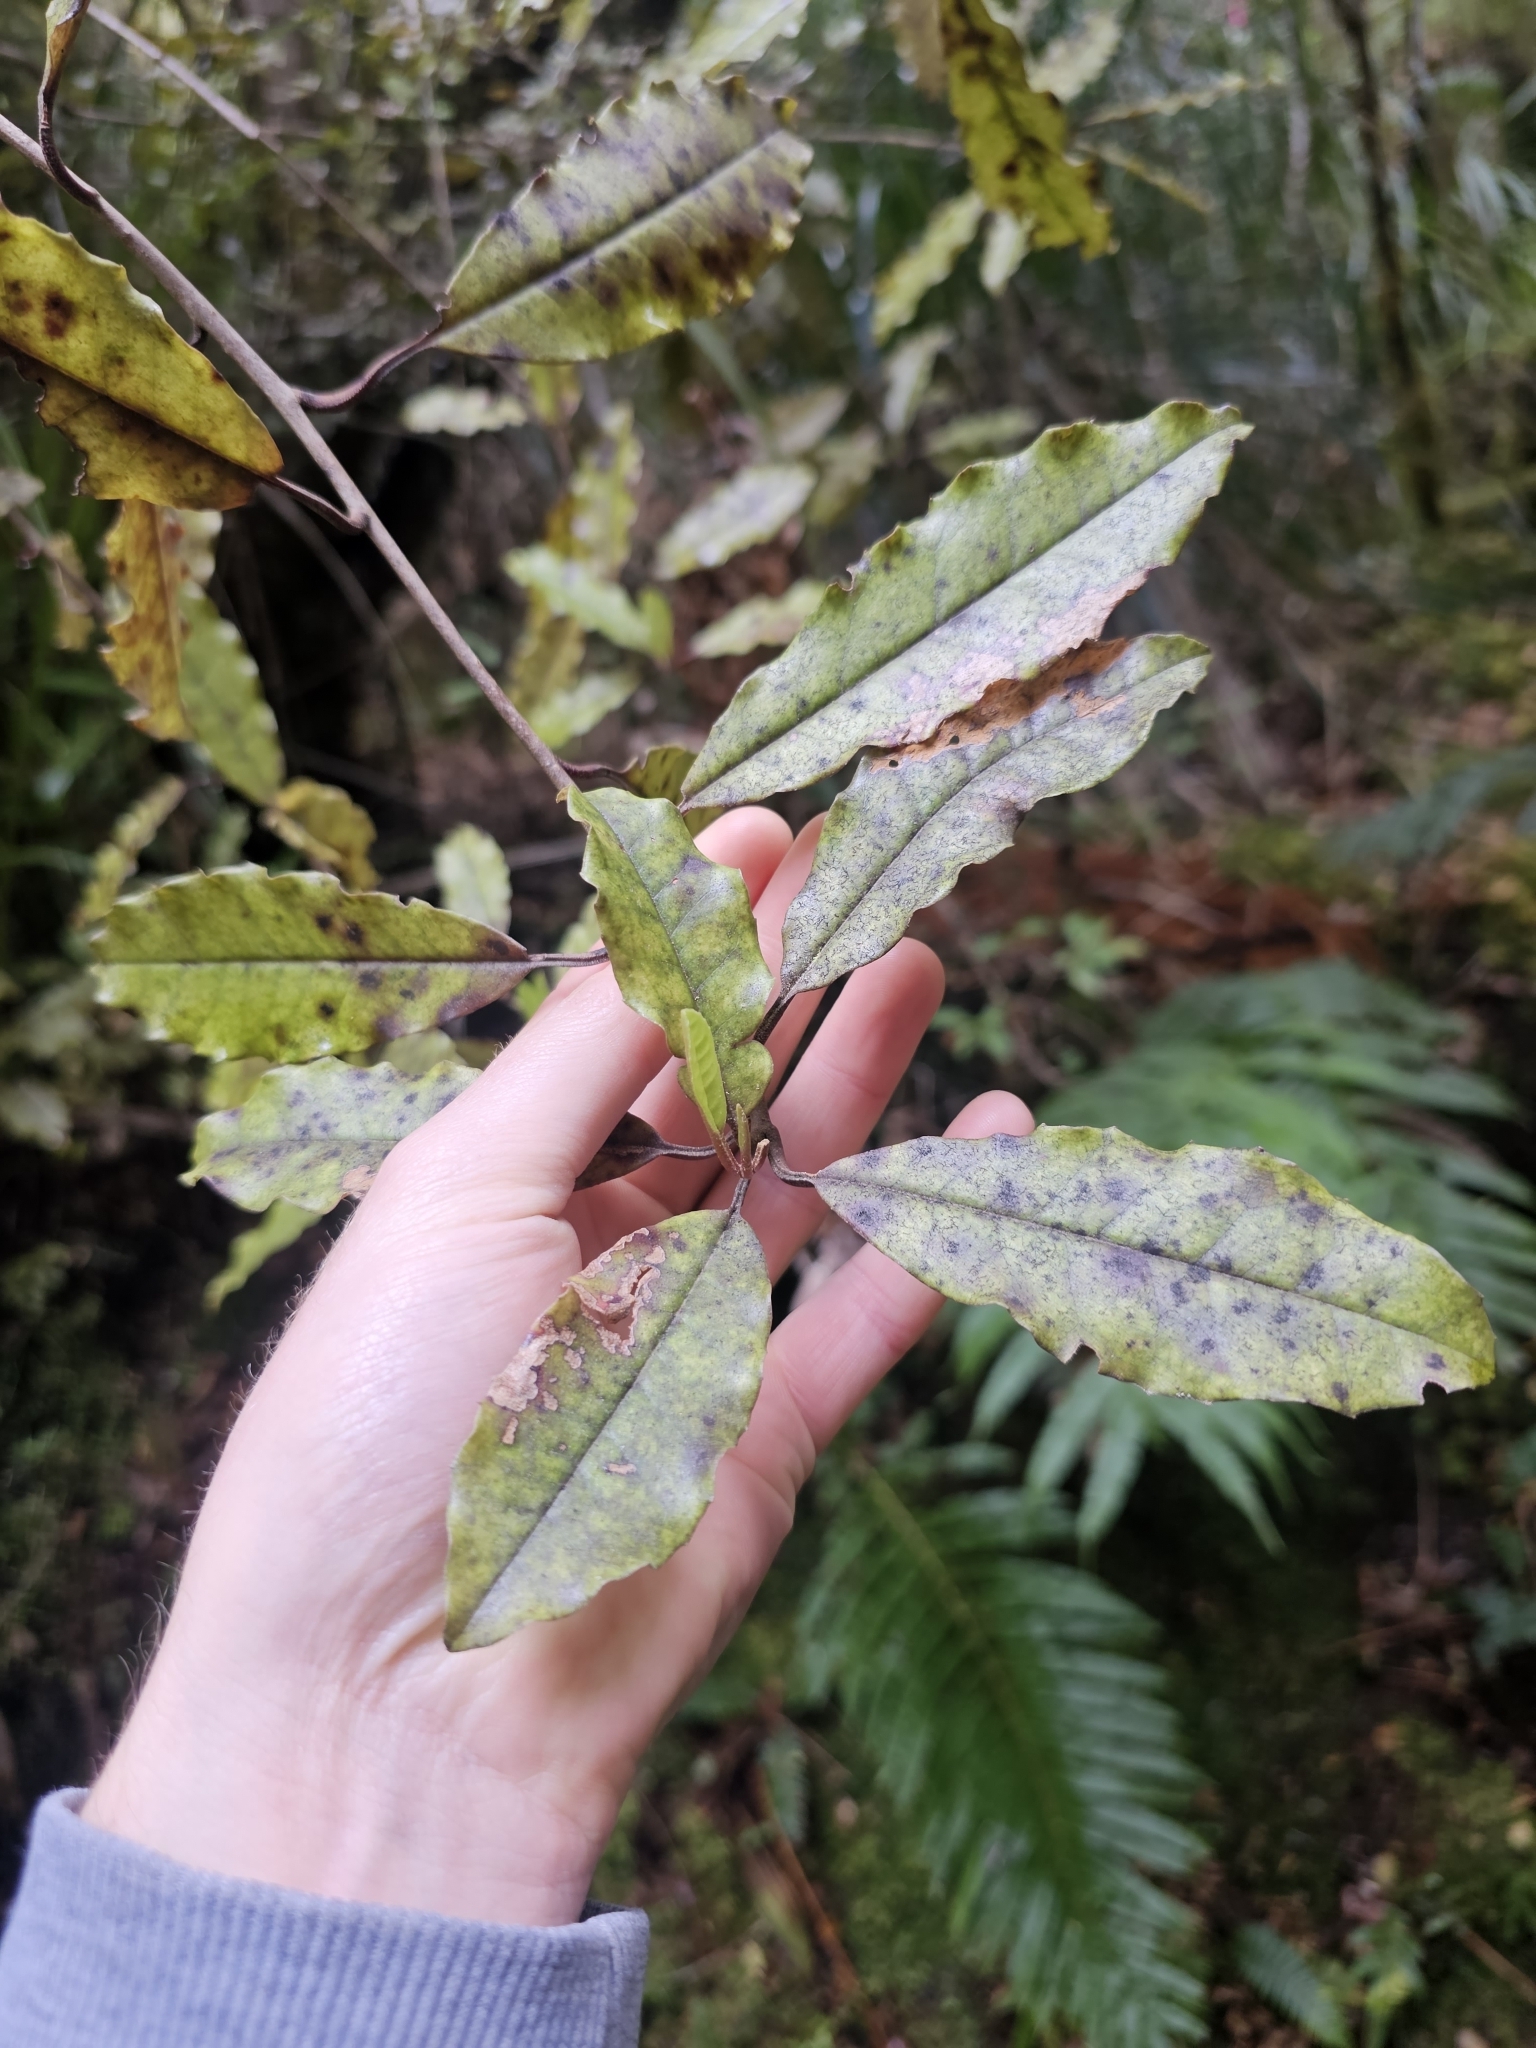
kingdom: Plantae
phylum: Tracheophyta
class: Magnoliopsida
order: Paracryphiales
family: Paracryphiaceae
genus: Quintinia
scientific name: Quintinia serrata
